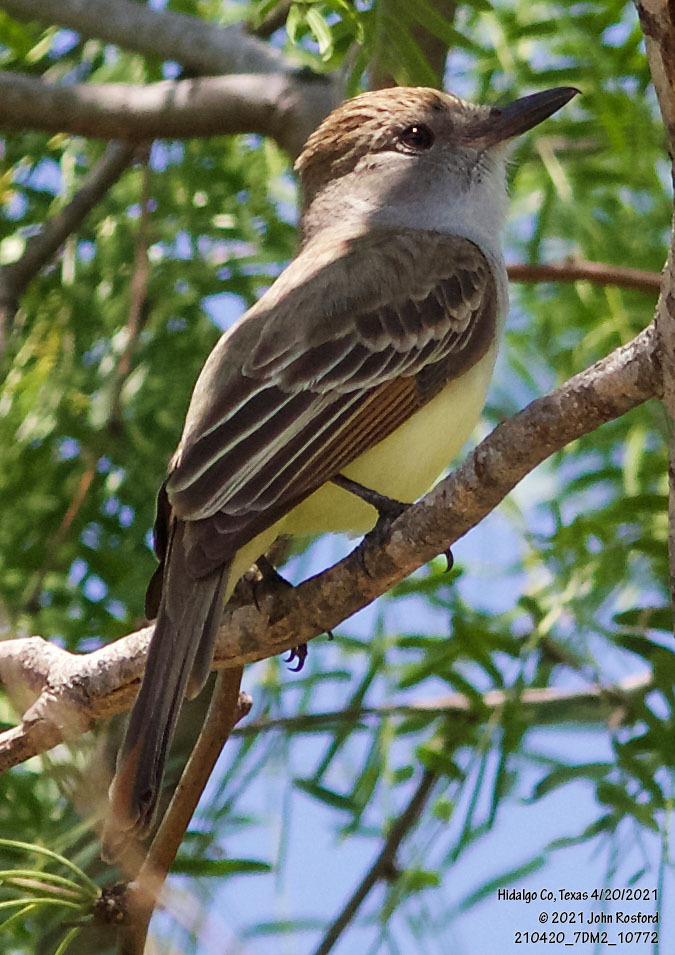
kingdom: Animalia
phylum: Chordata
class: Aves
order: Passeriformes
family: Tyrannidae
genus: Myiarchus
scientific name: Myiarchus tyrannulus
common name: Brown-crested flycatcher
